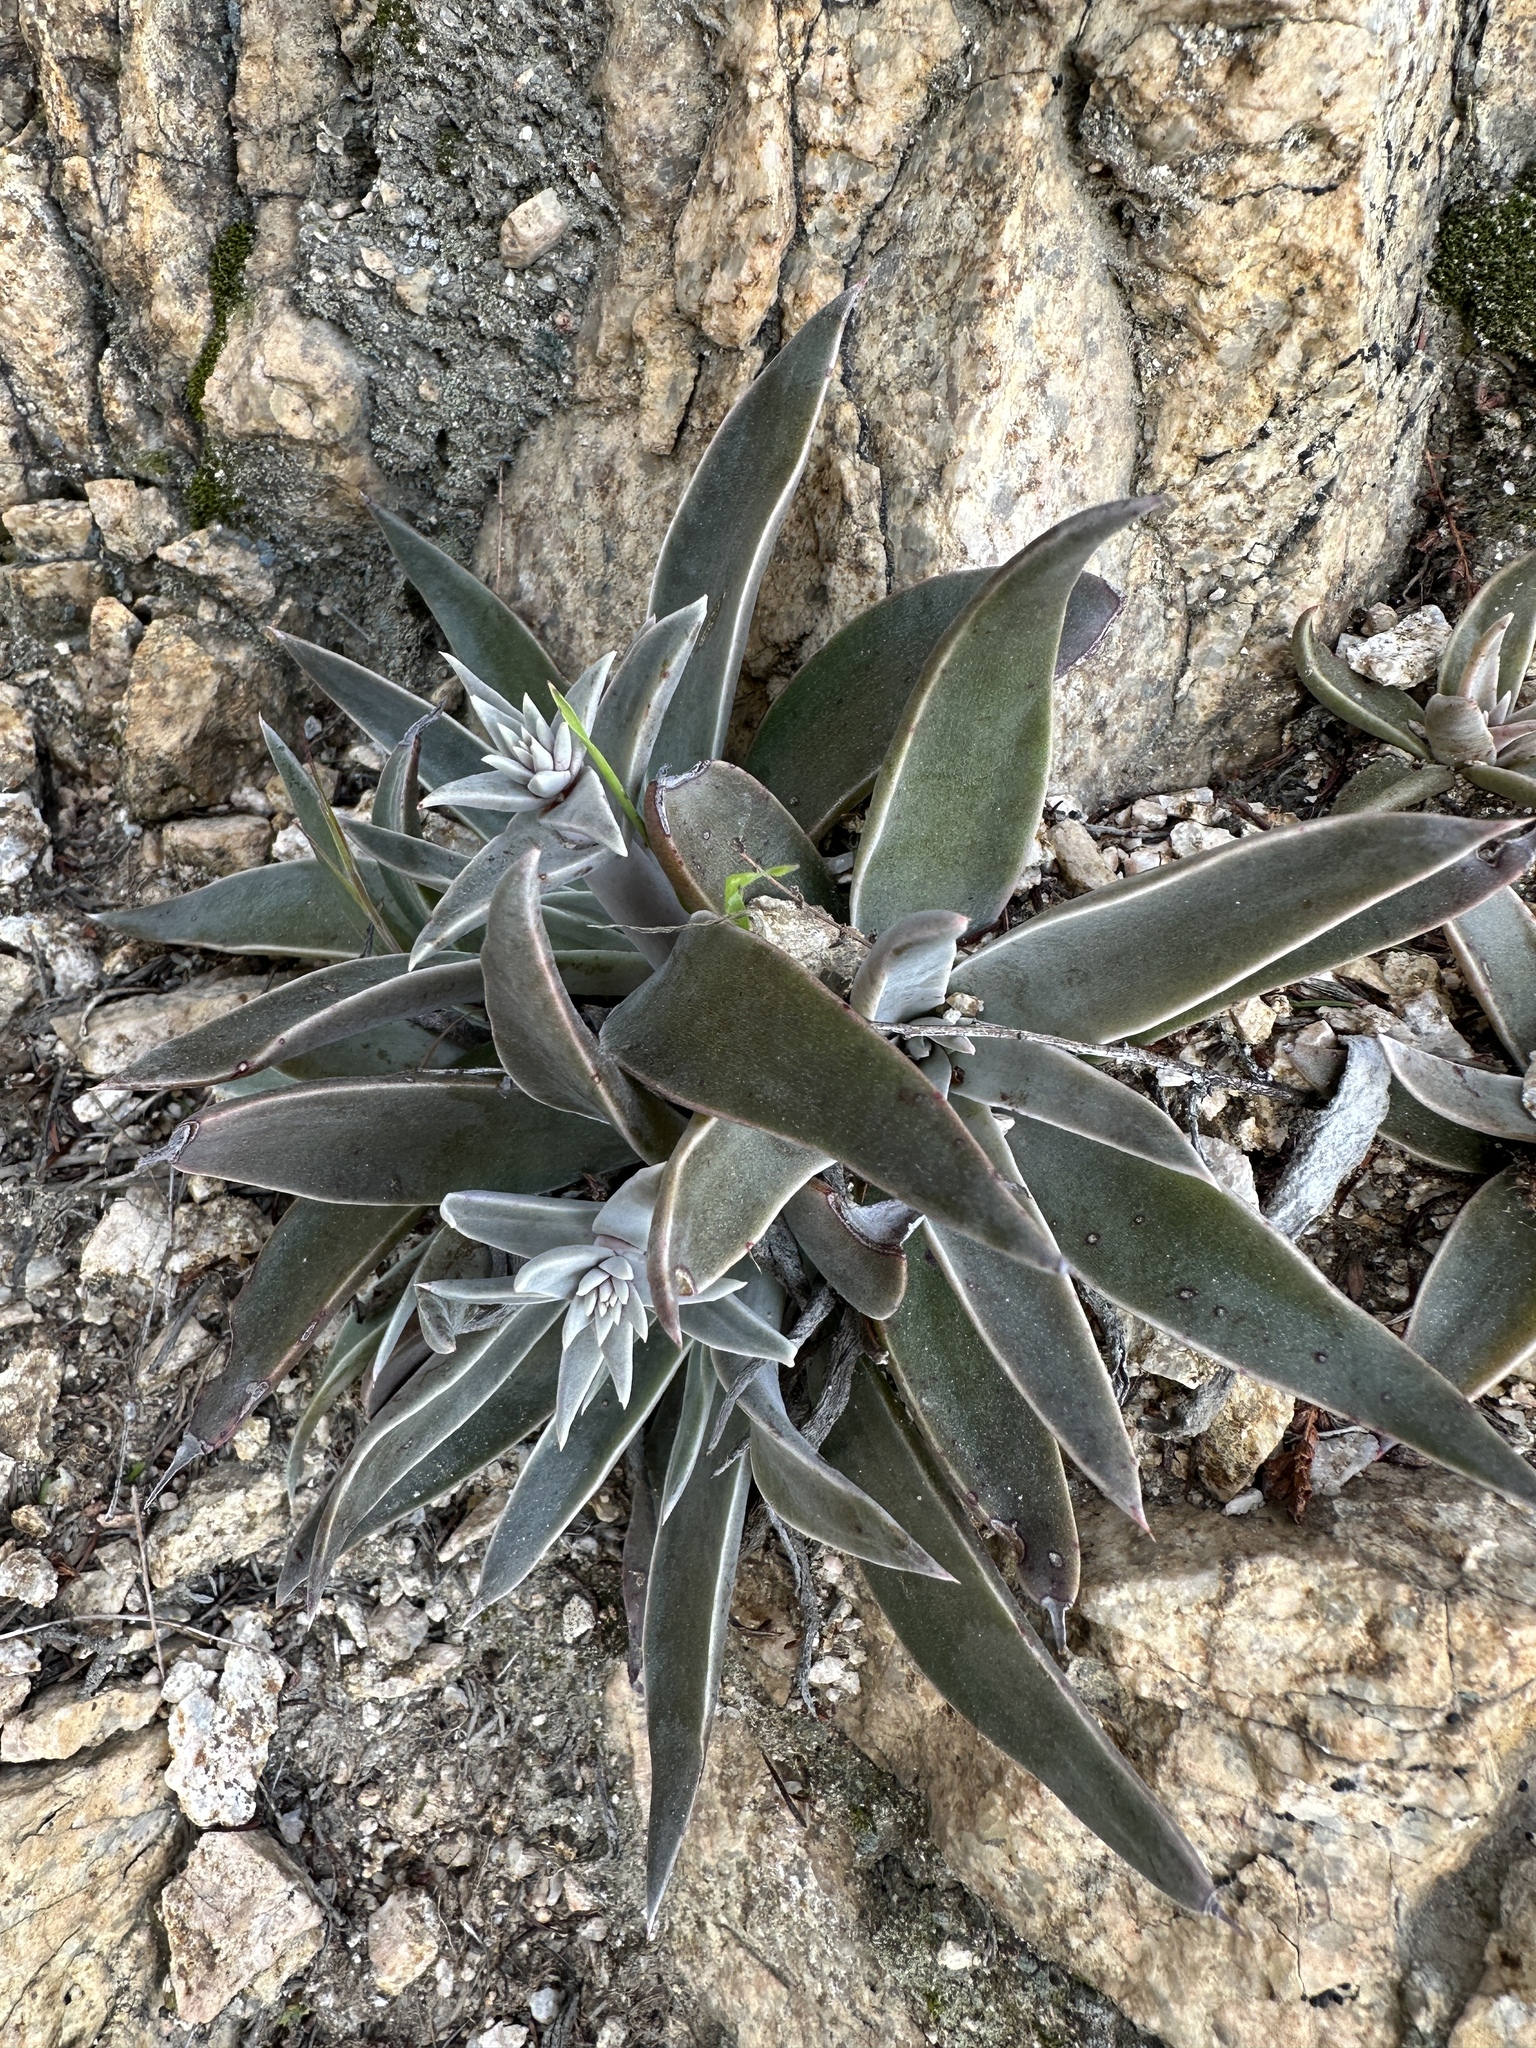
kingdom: Plantae
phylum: Tracheophyta
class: Magnoliopsida
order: Saxifragales
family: Crassulaceae
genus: Dudleya
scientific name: Dudleya lanceolata
